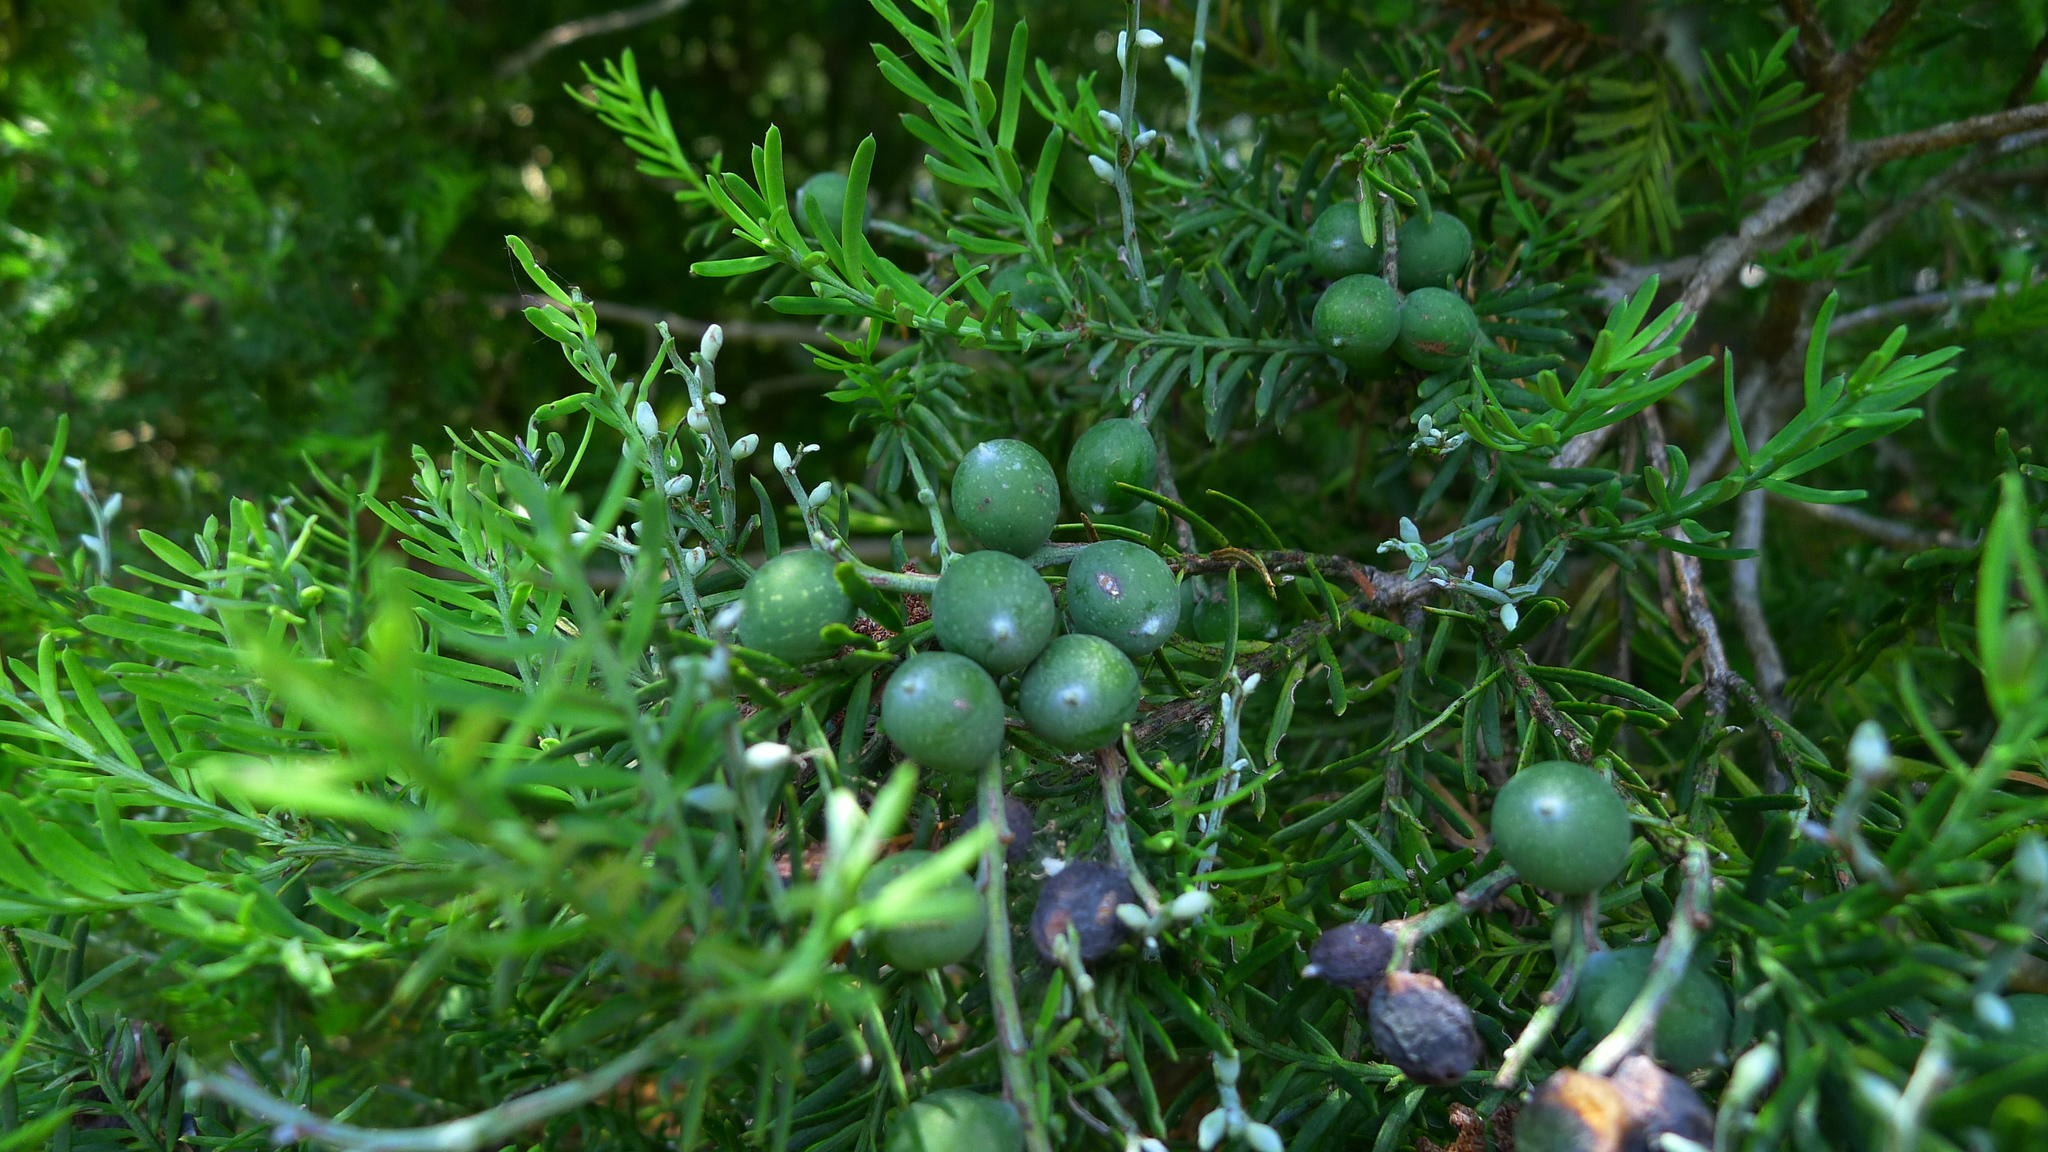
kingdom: Plantae
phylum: Tracheophyta
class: Pinopsida
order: Pinales
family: Podocarpaceae
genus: Prumnopitys
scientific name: Prumnopitys taxifolia
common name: Matai
